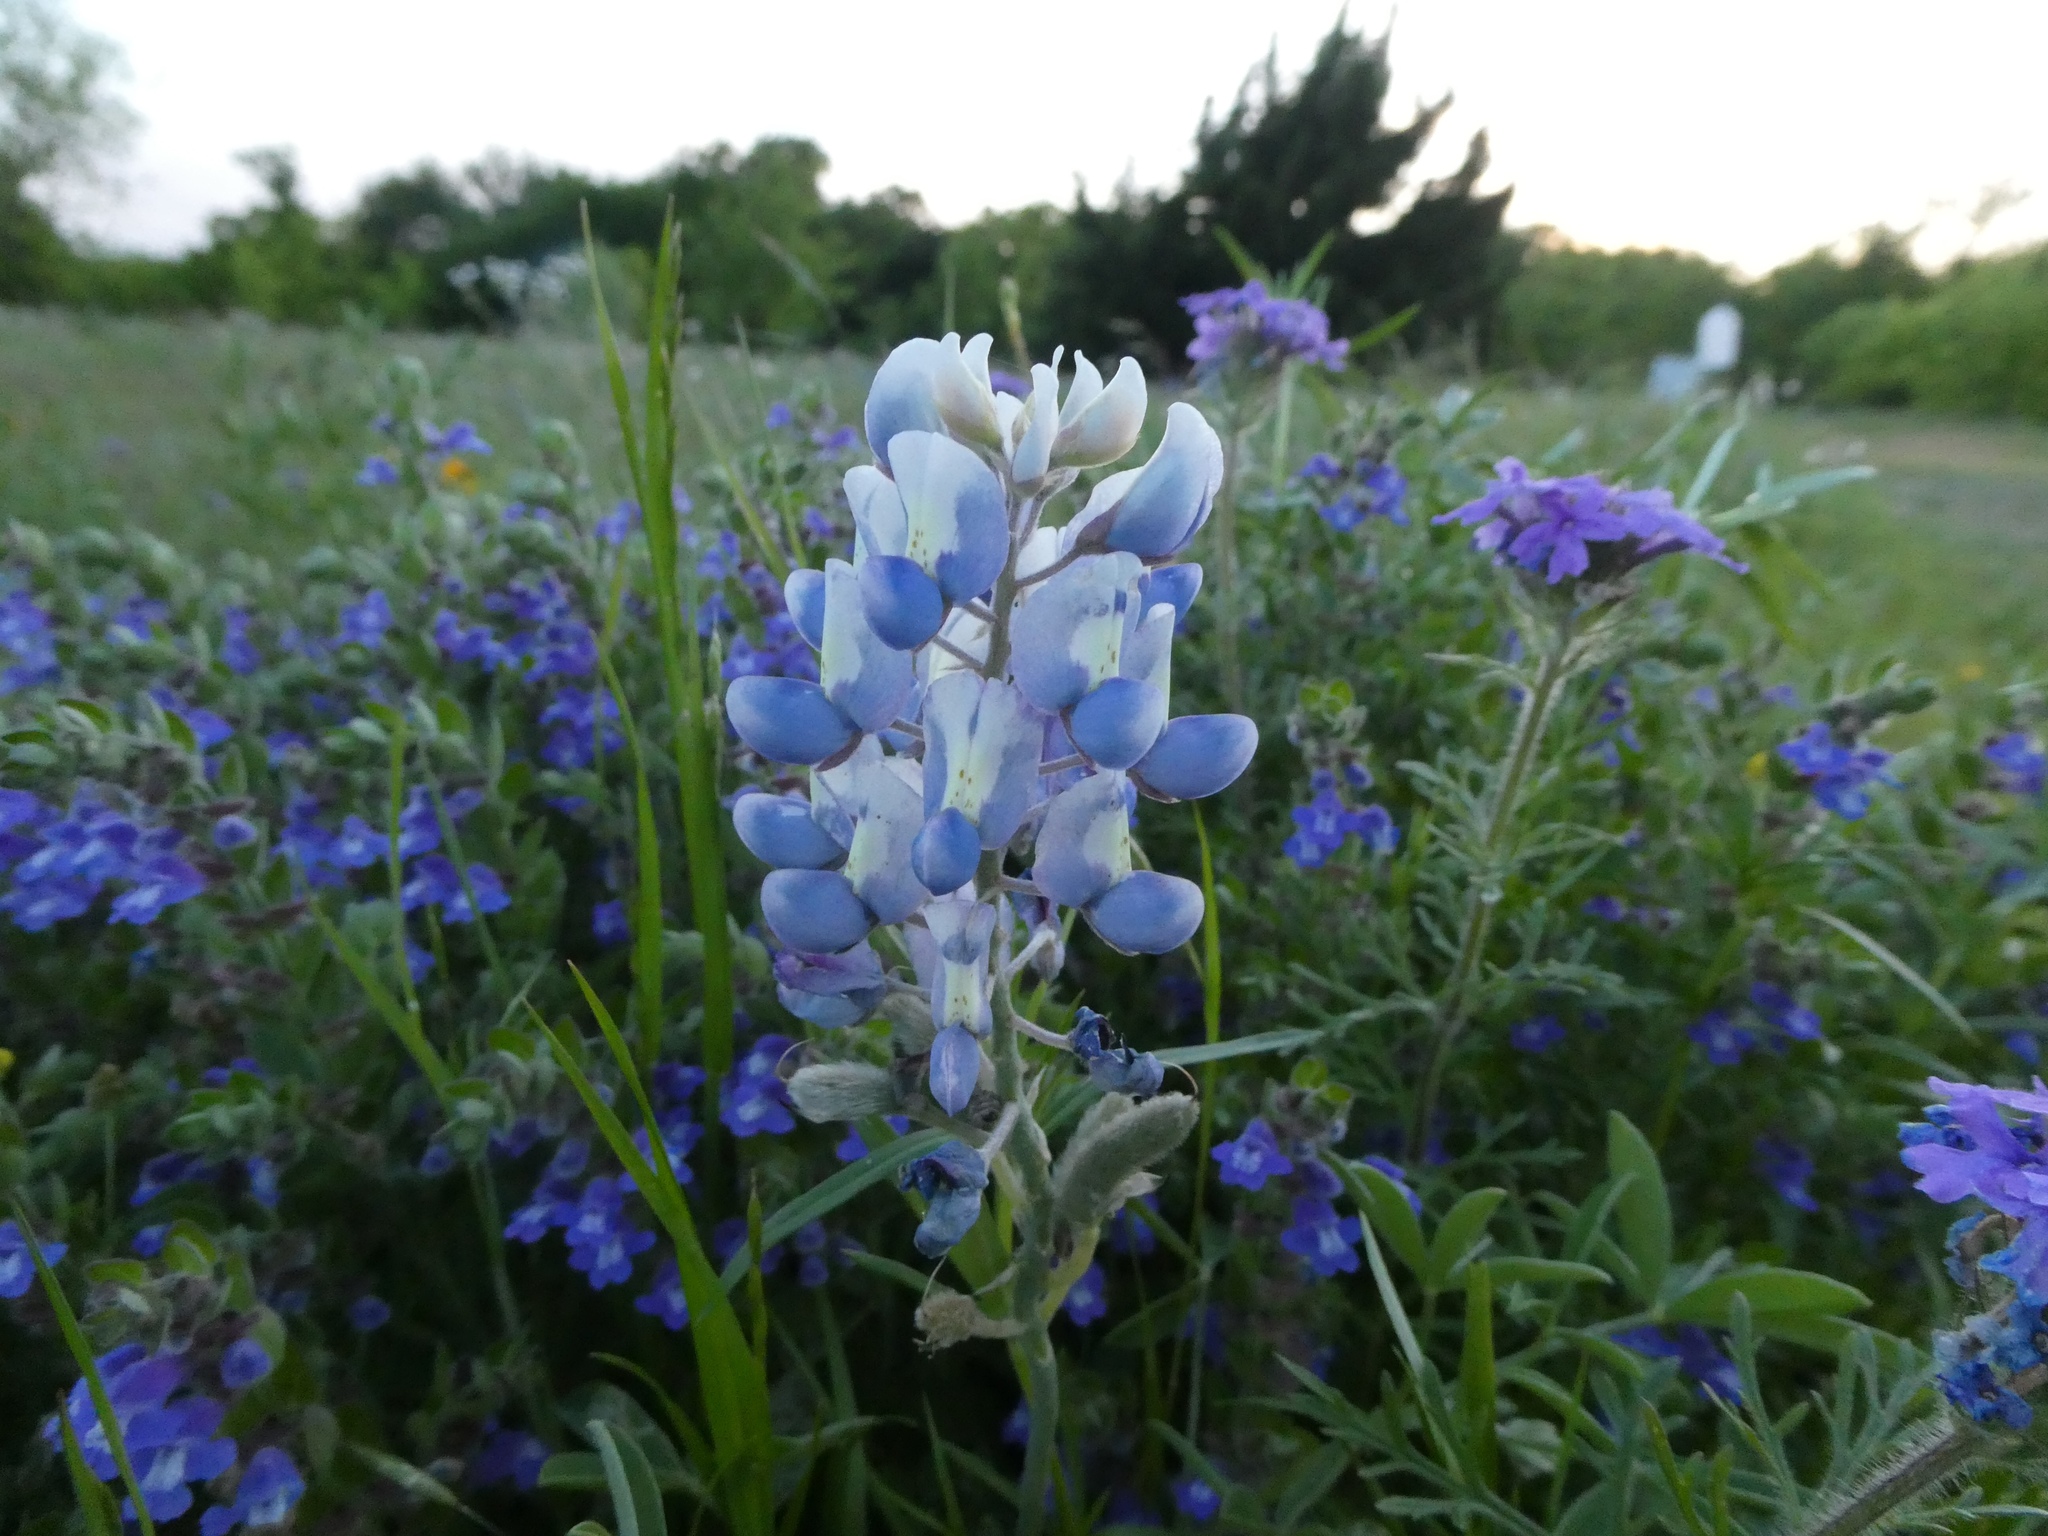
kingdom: Plantae
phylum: Tracheophyta
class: Magnoliopsida
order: Fabales
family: Fabaceae
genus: Lupinus
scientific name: Lupinus texensis
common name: Texas bluebonnet
